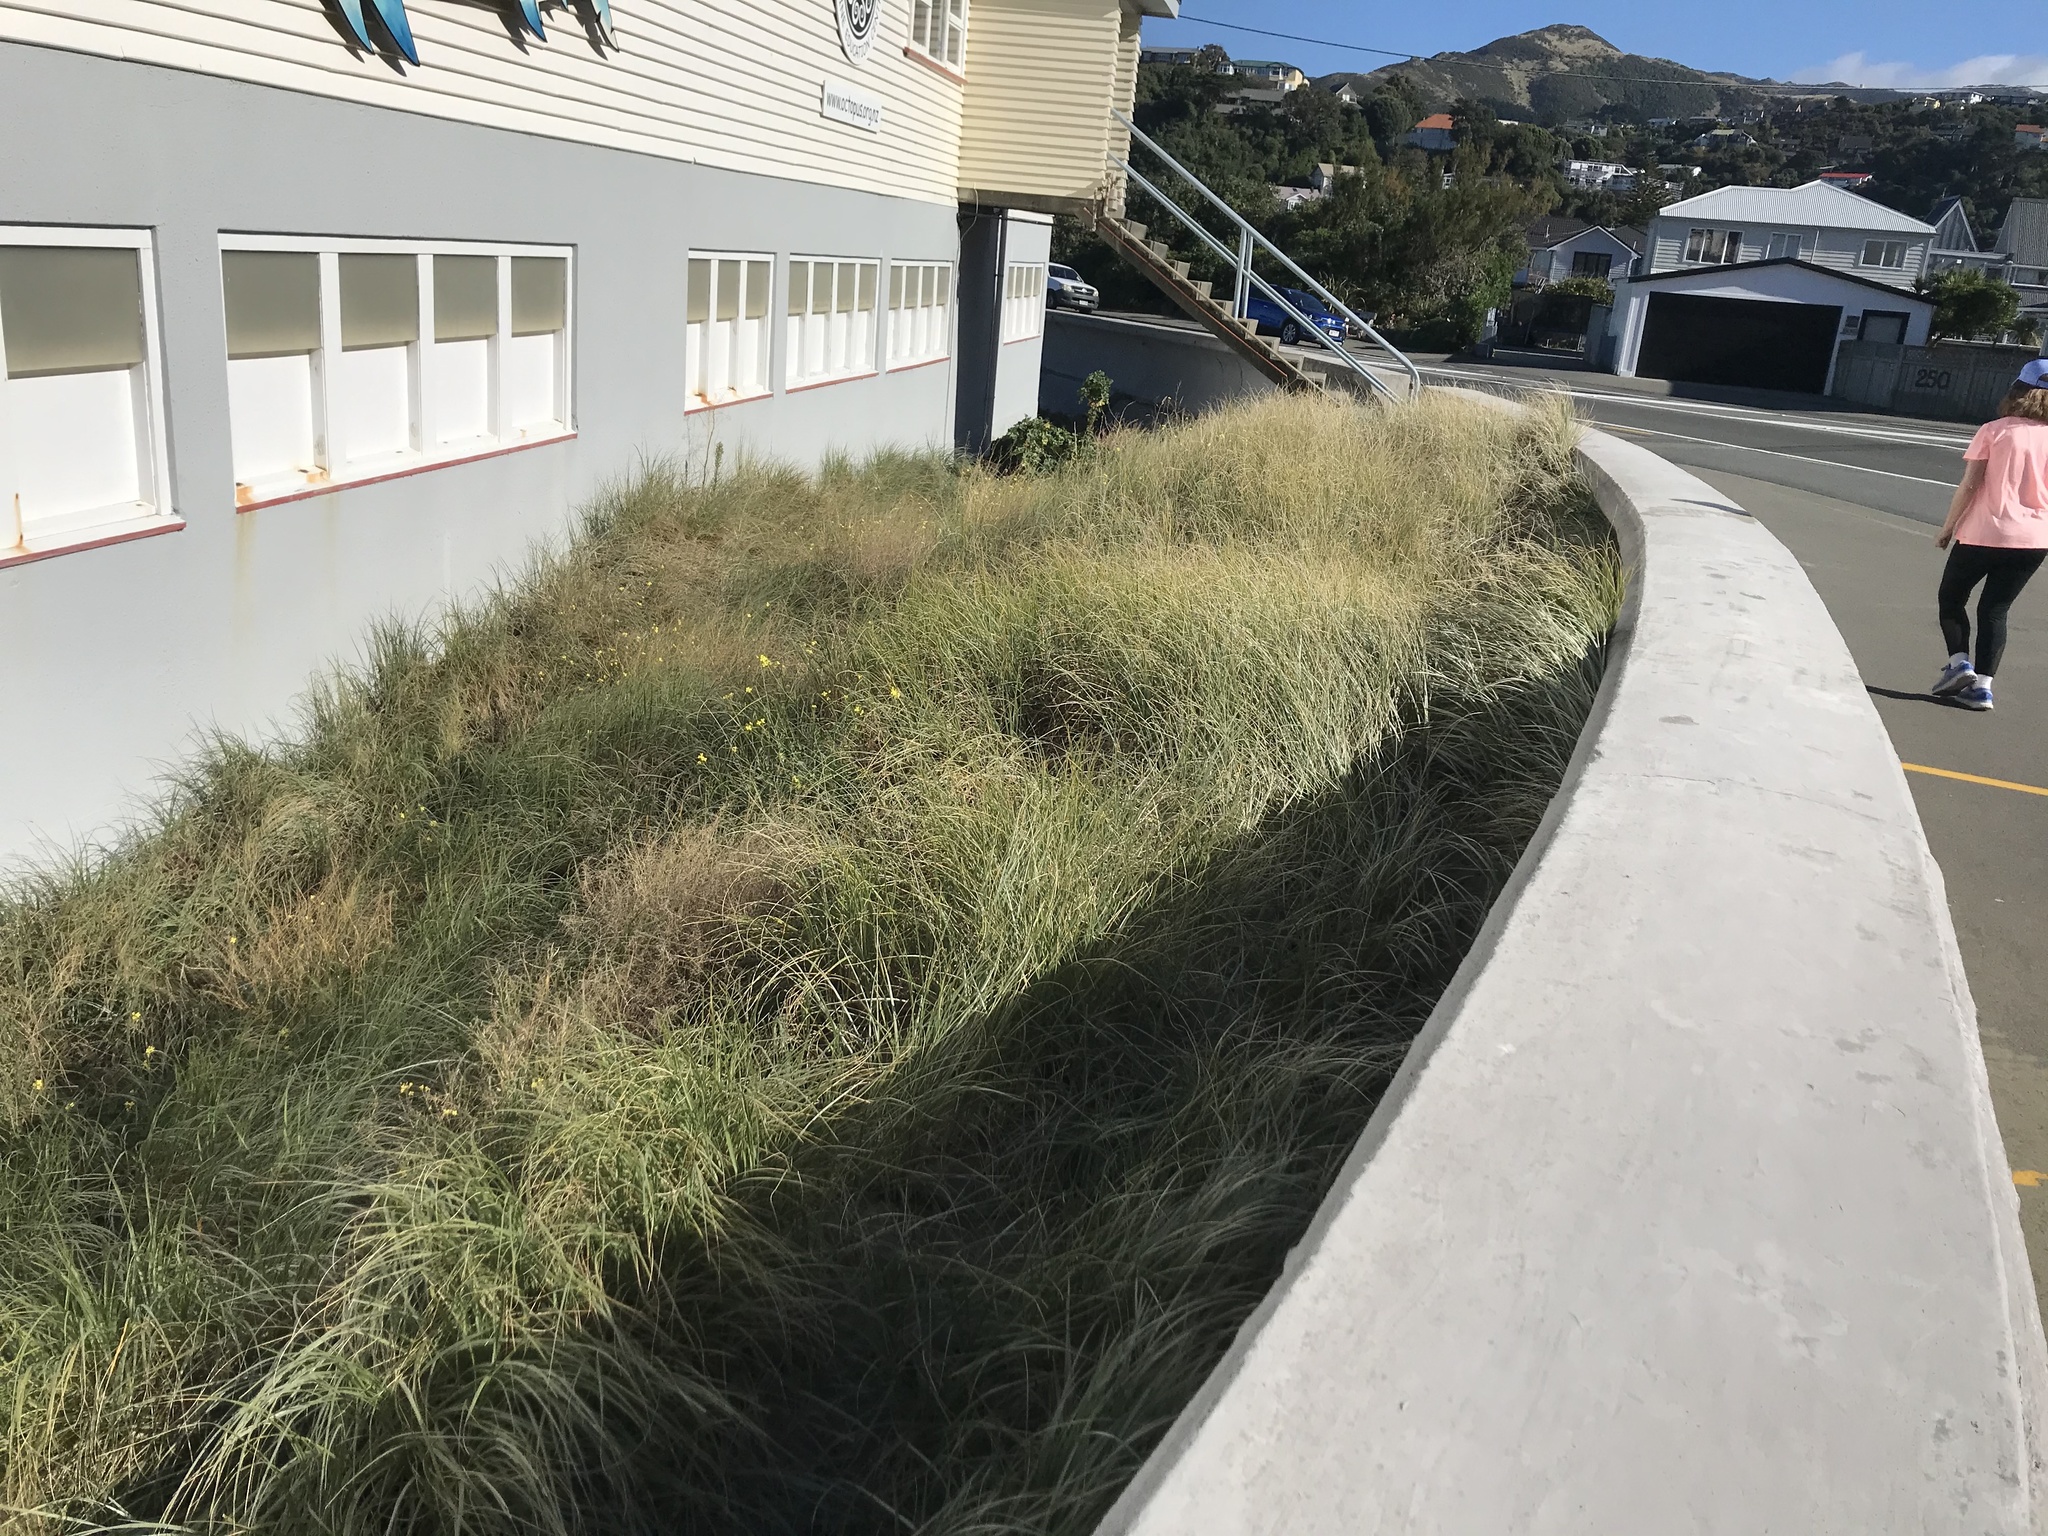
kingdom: Plantae
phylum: Tracheophyta
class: Liliopsida
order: Poales
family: Poaceae
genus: Spinifex
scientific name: Spinifex sericeus
